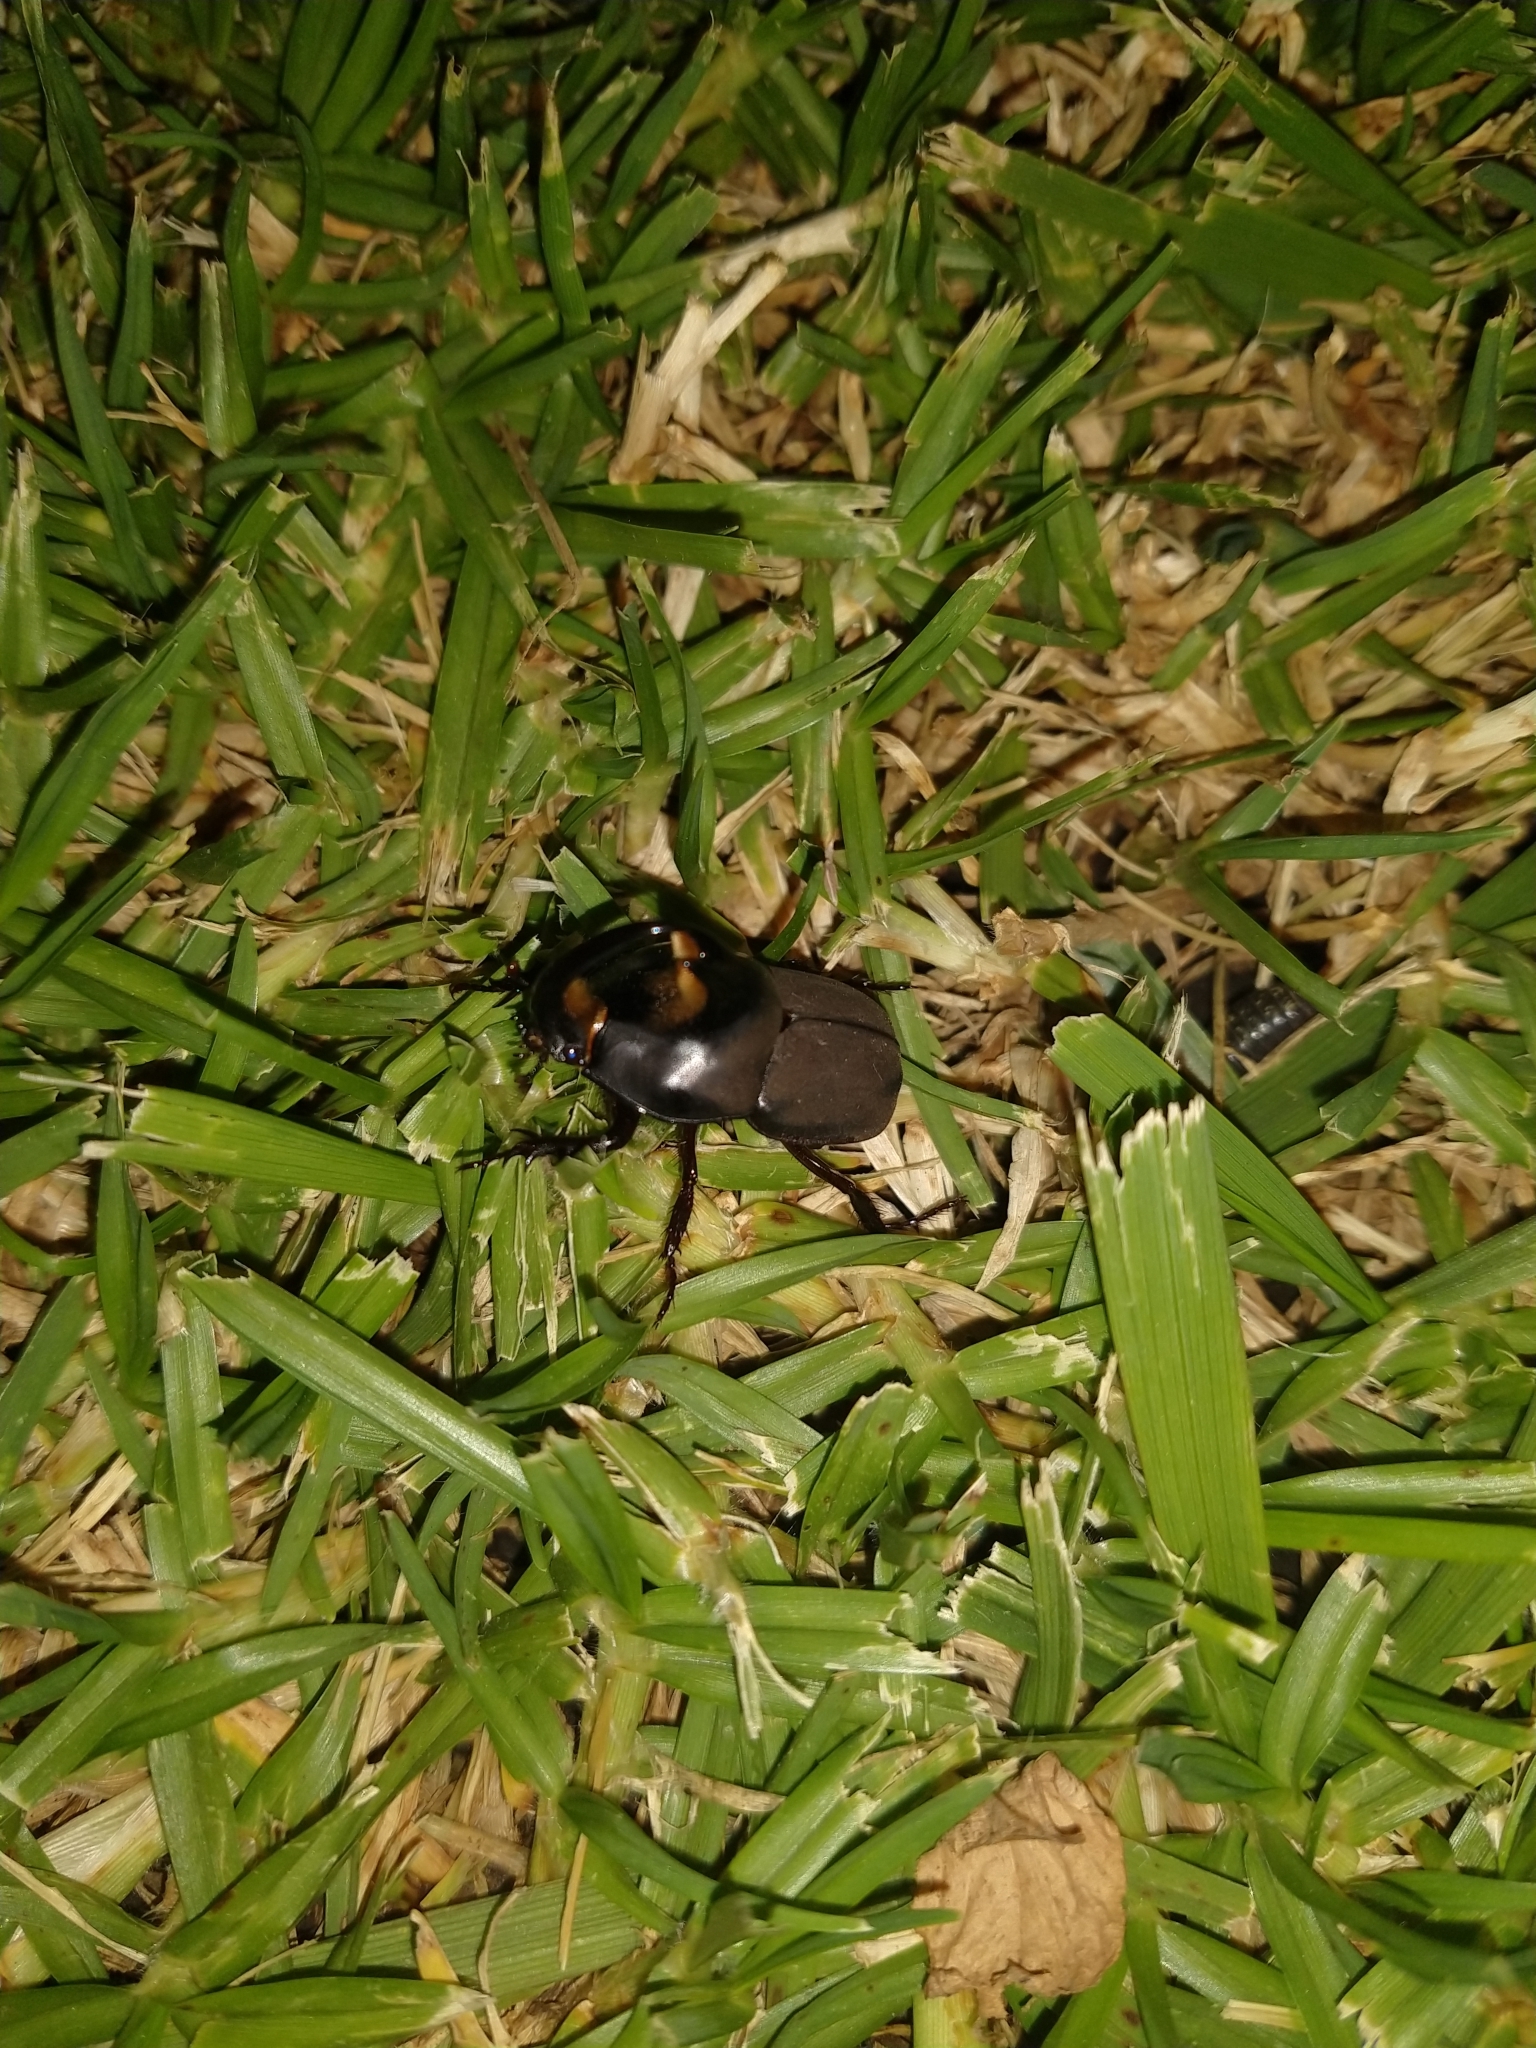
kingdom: Animalia
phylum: Arthropoda
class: Insecta
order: Coleoptera
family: Scarabaeidae
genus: Diloboderus
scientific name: Diloboderus abderus
